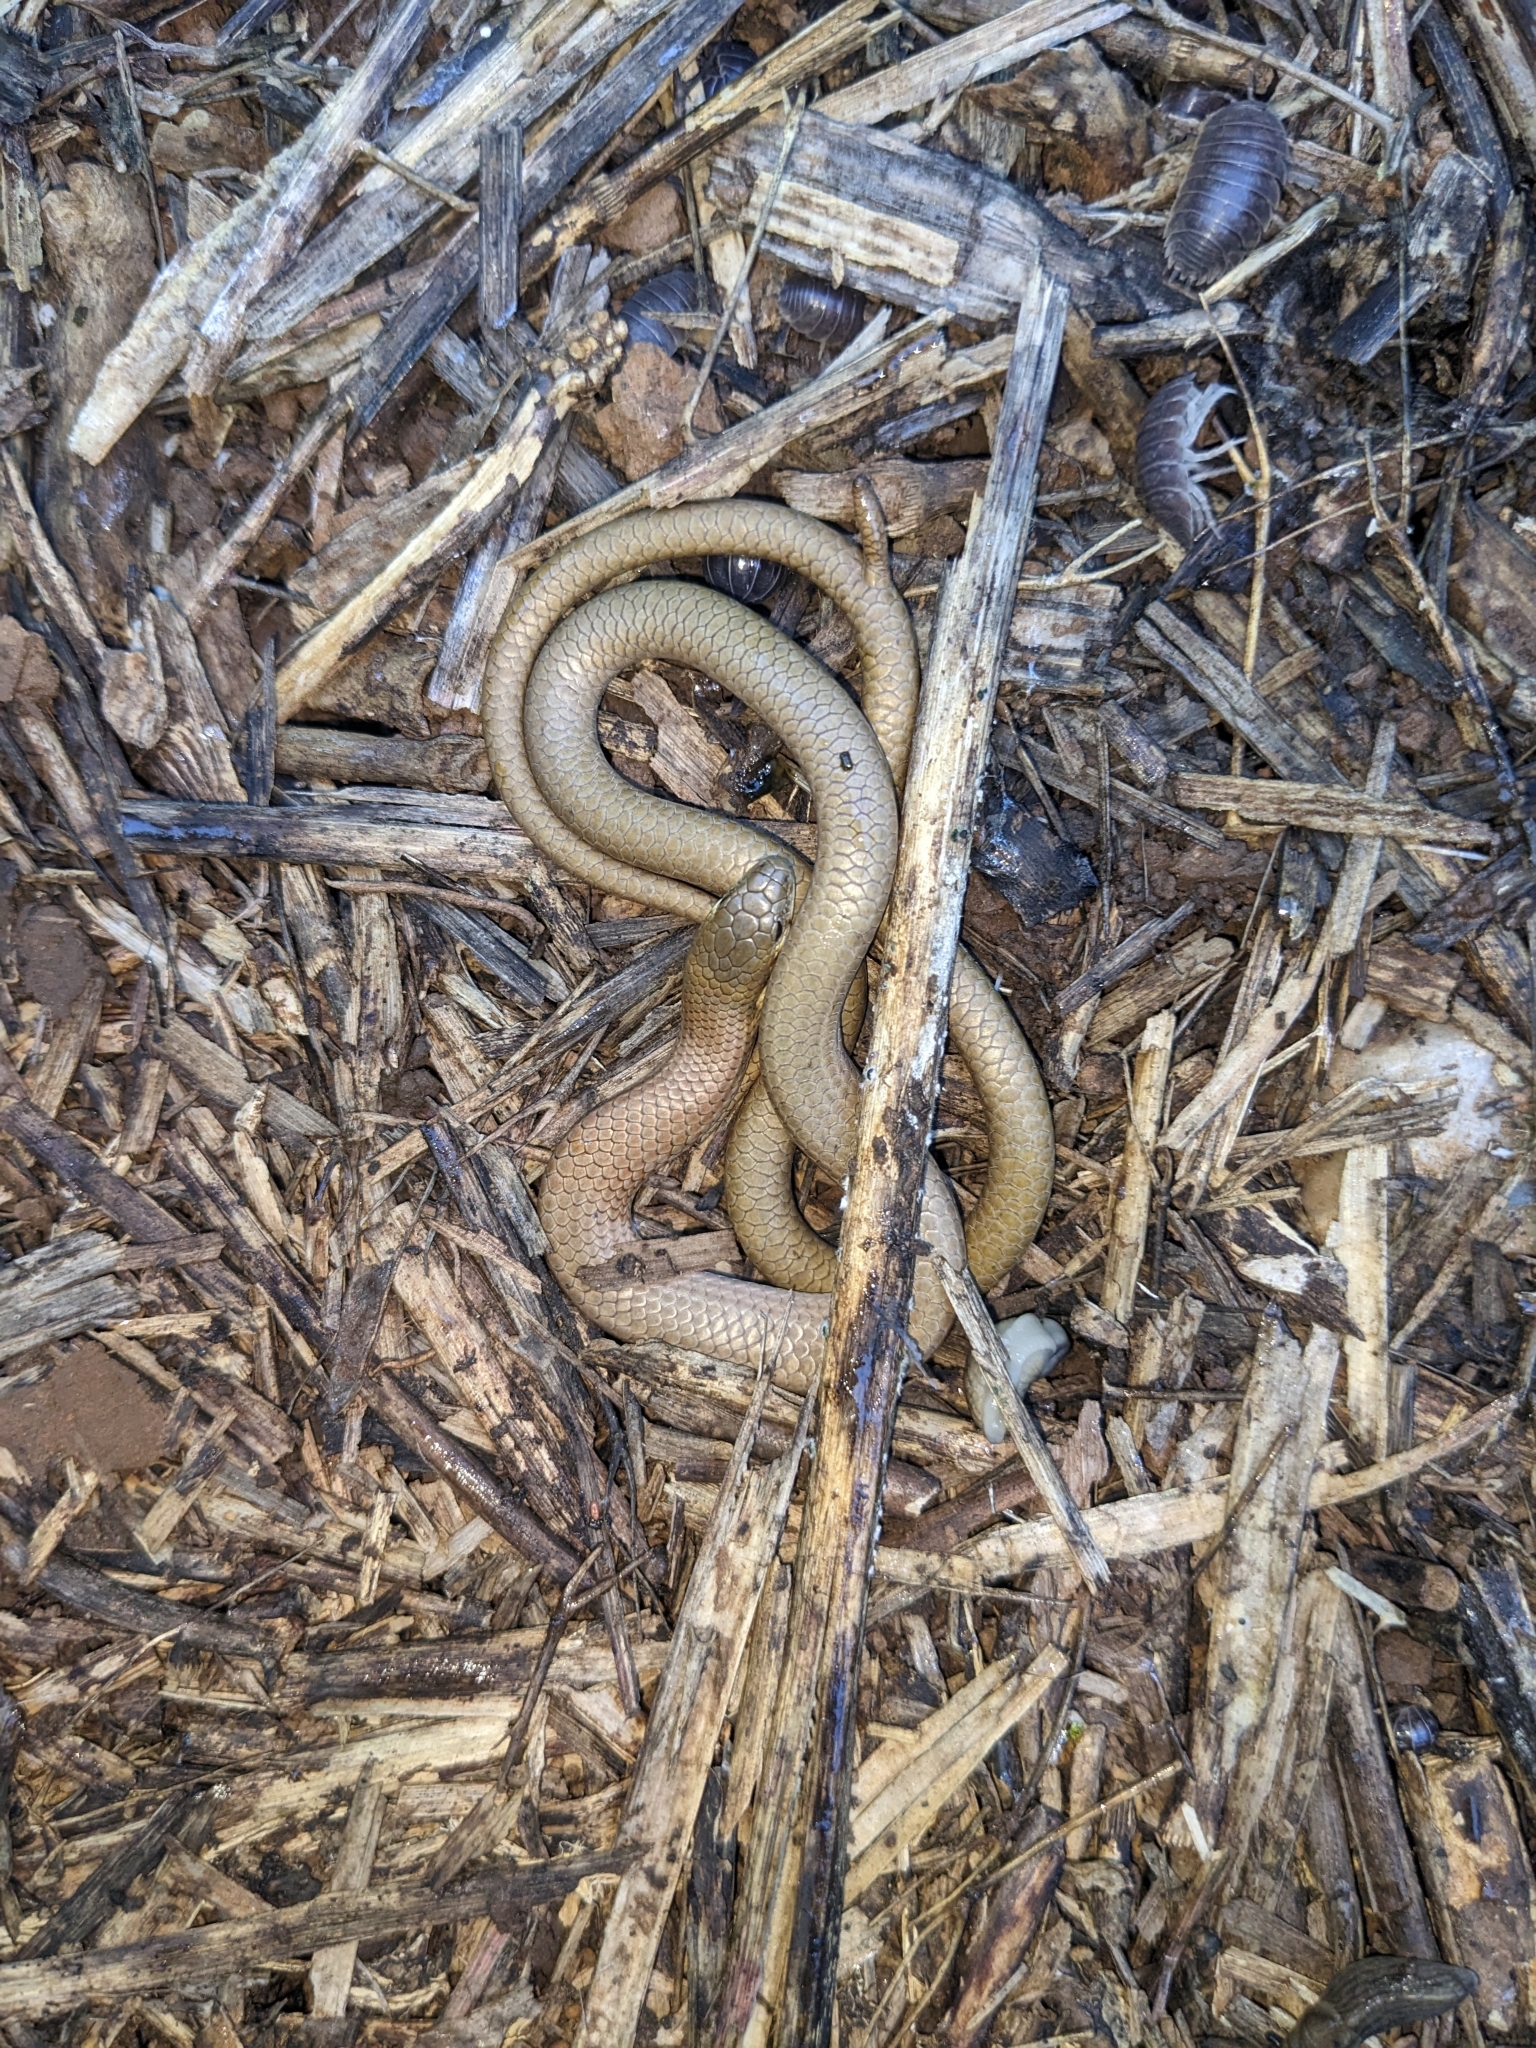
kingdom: Animalia
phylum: Chordata
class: Squamata
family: Pygopodidae
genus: Delma
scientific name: Delma molleri
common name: Gulfs delma
